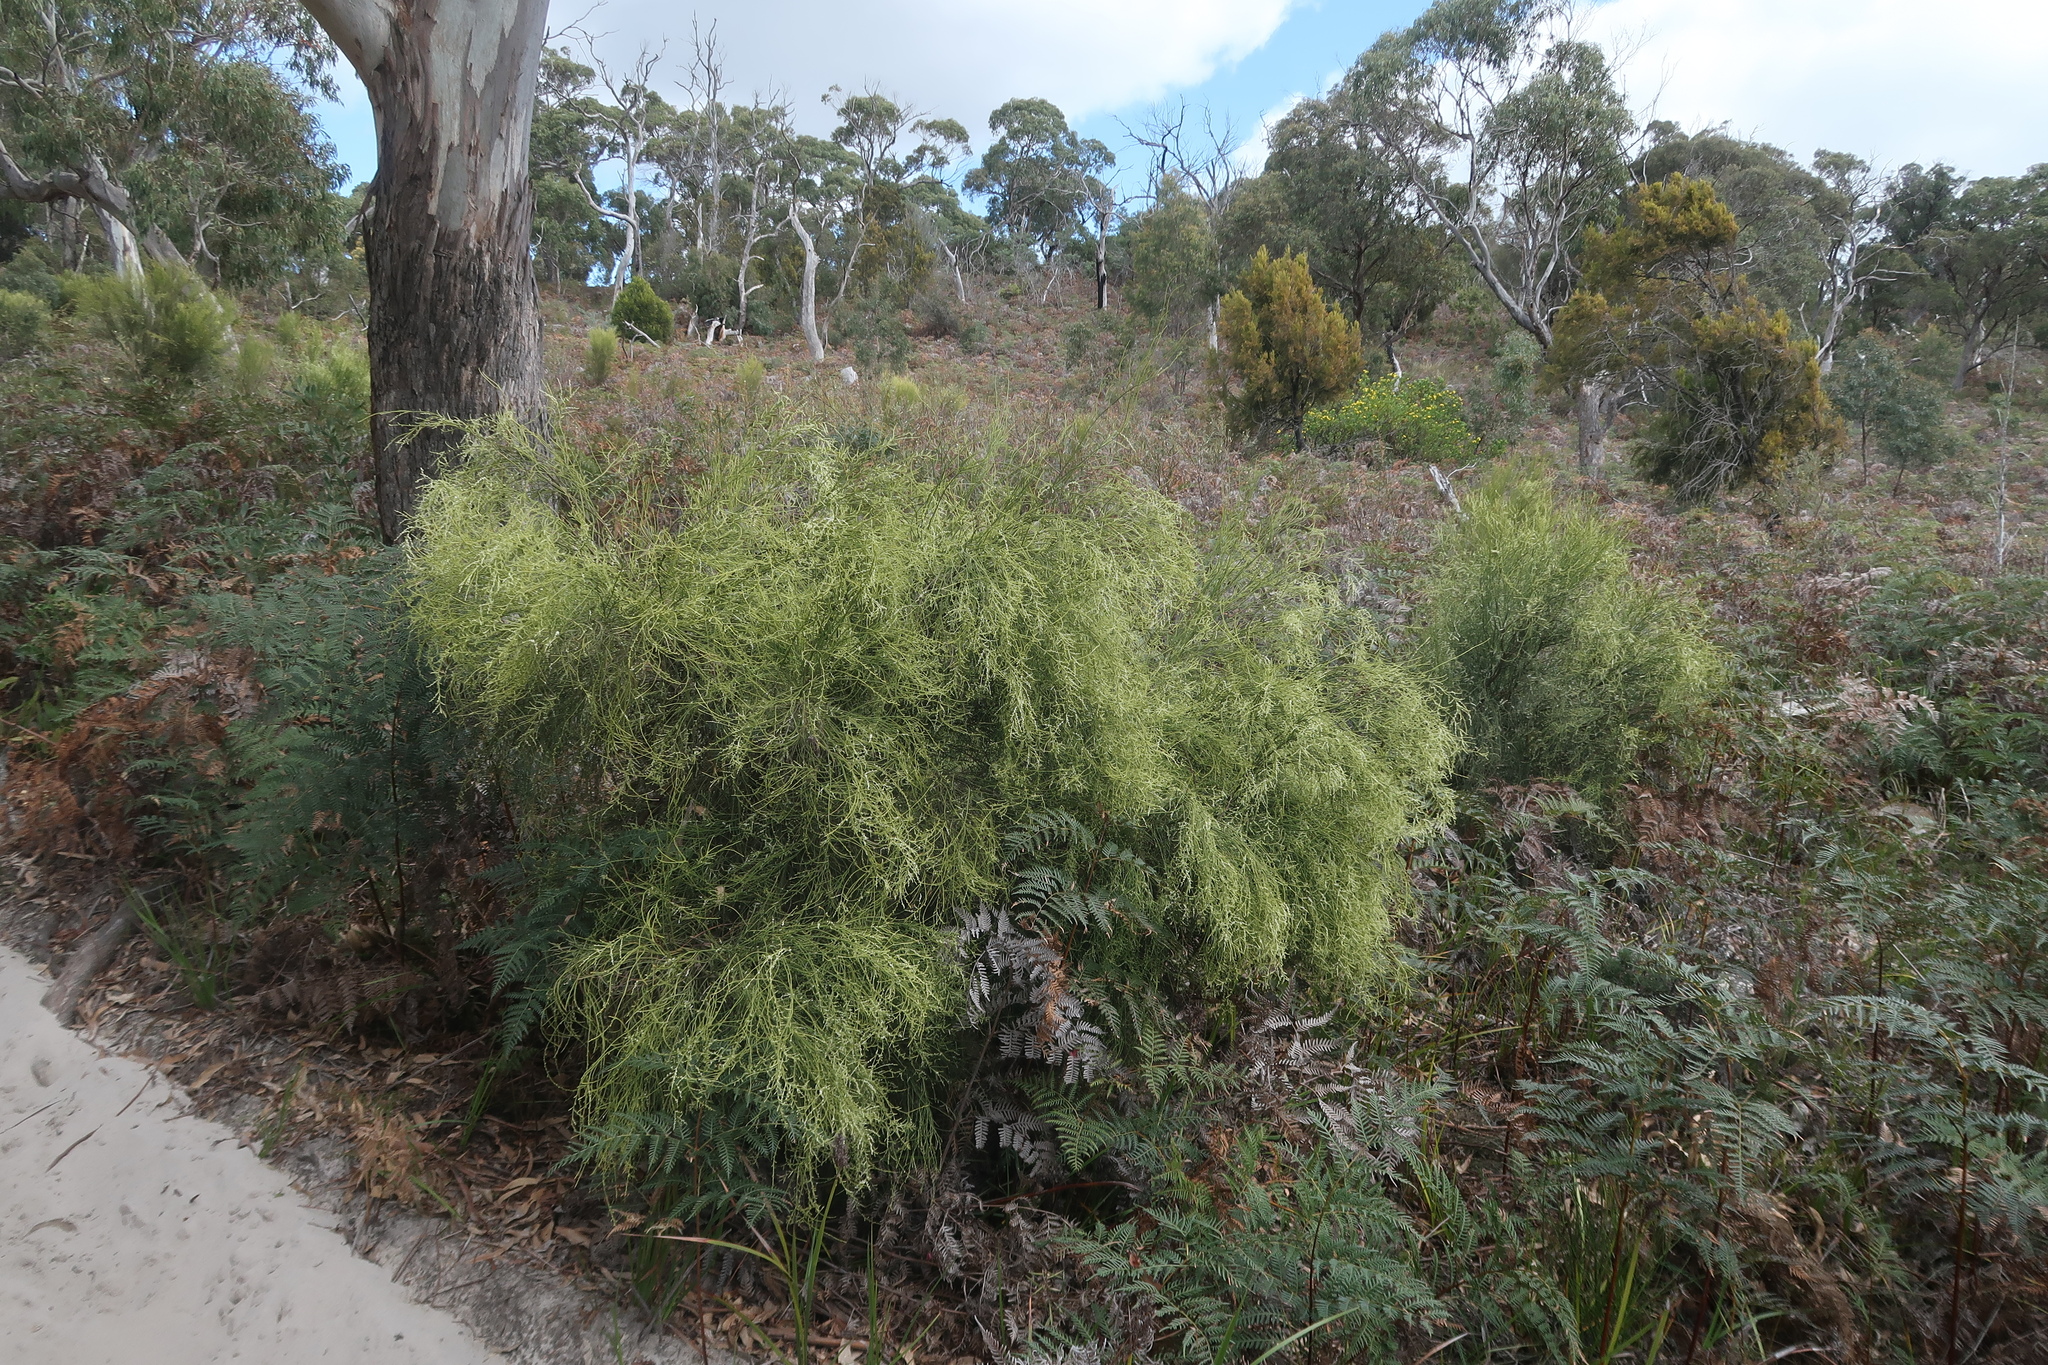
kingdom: Plantae
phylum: Tracheophyta
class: Magnoliopsida
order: Santalales
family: Amphorogynaceae
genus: Leptomeria
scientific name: Leptomeria drupacea
